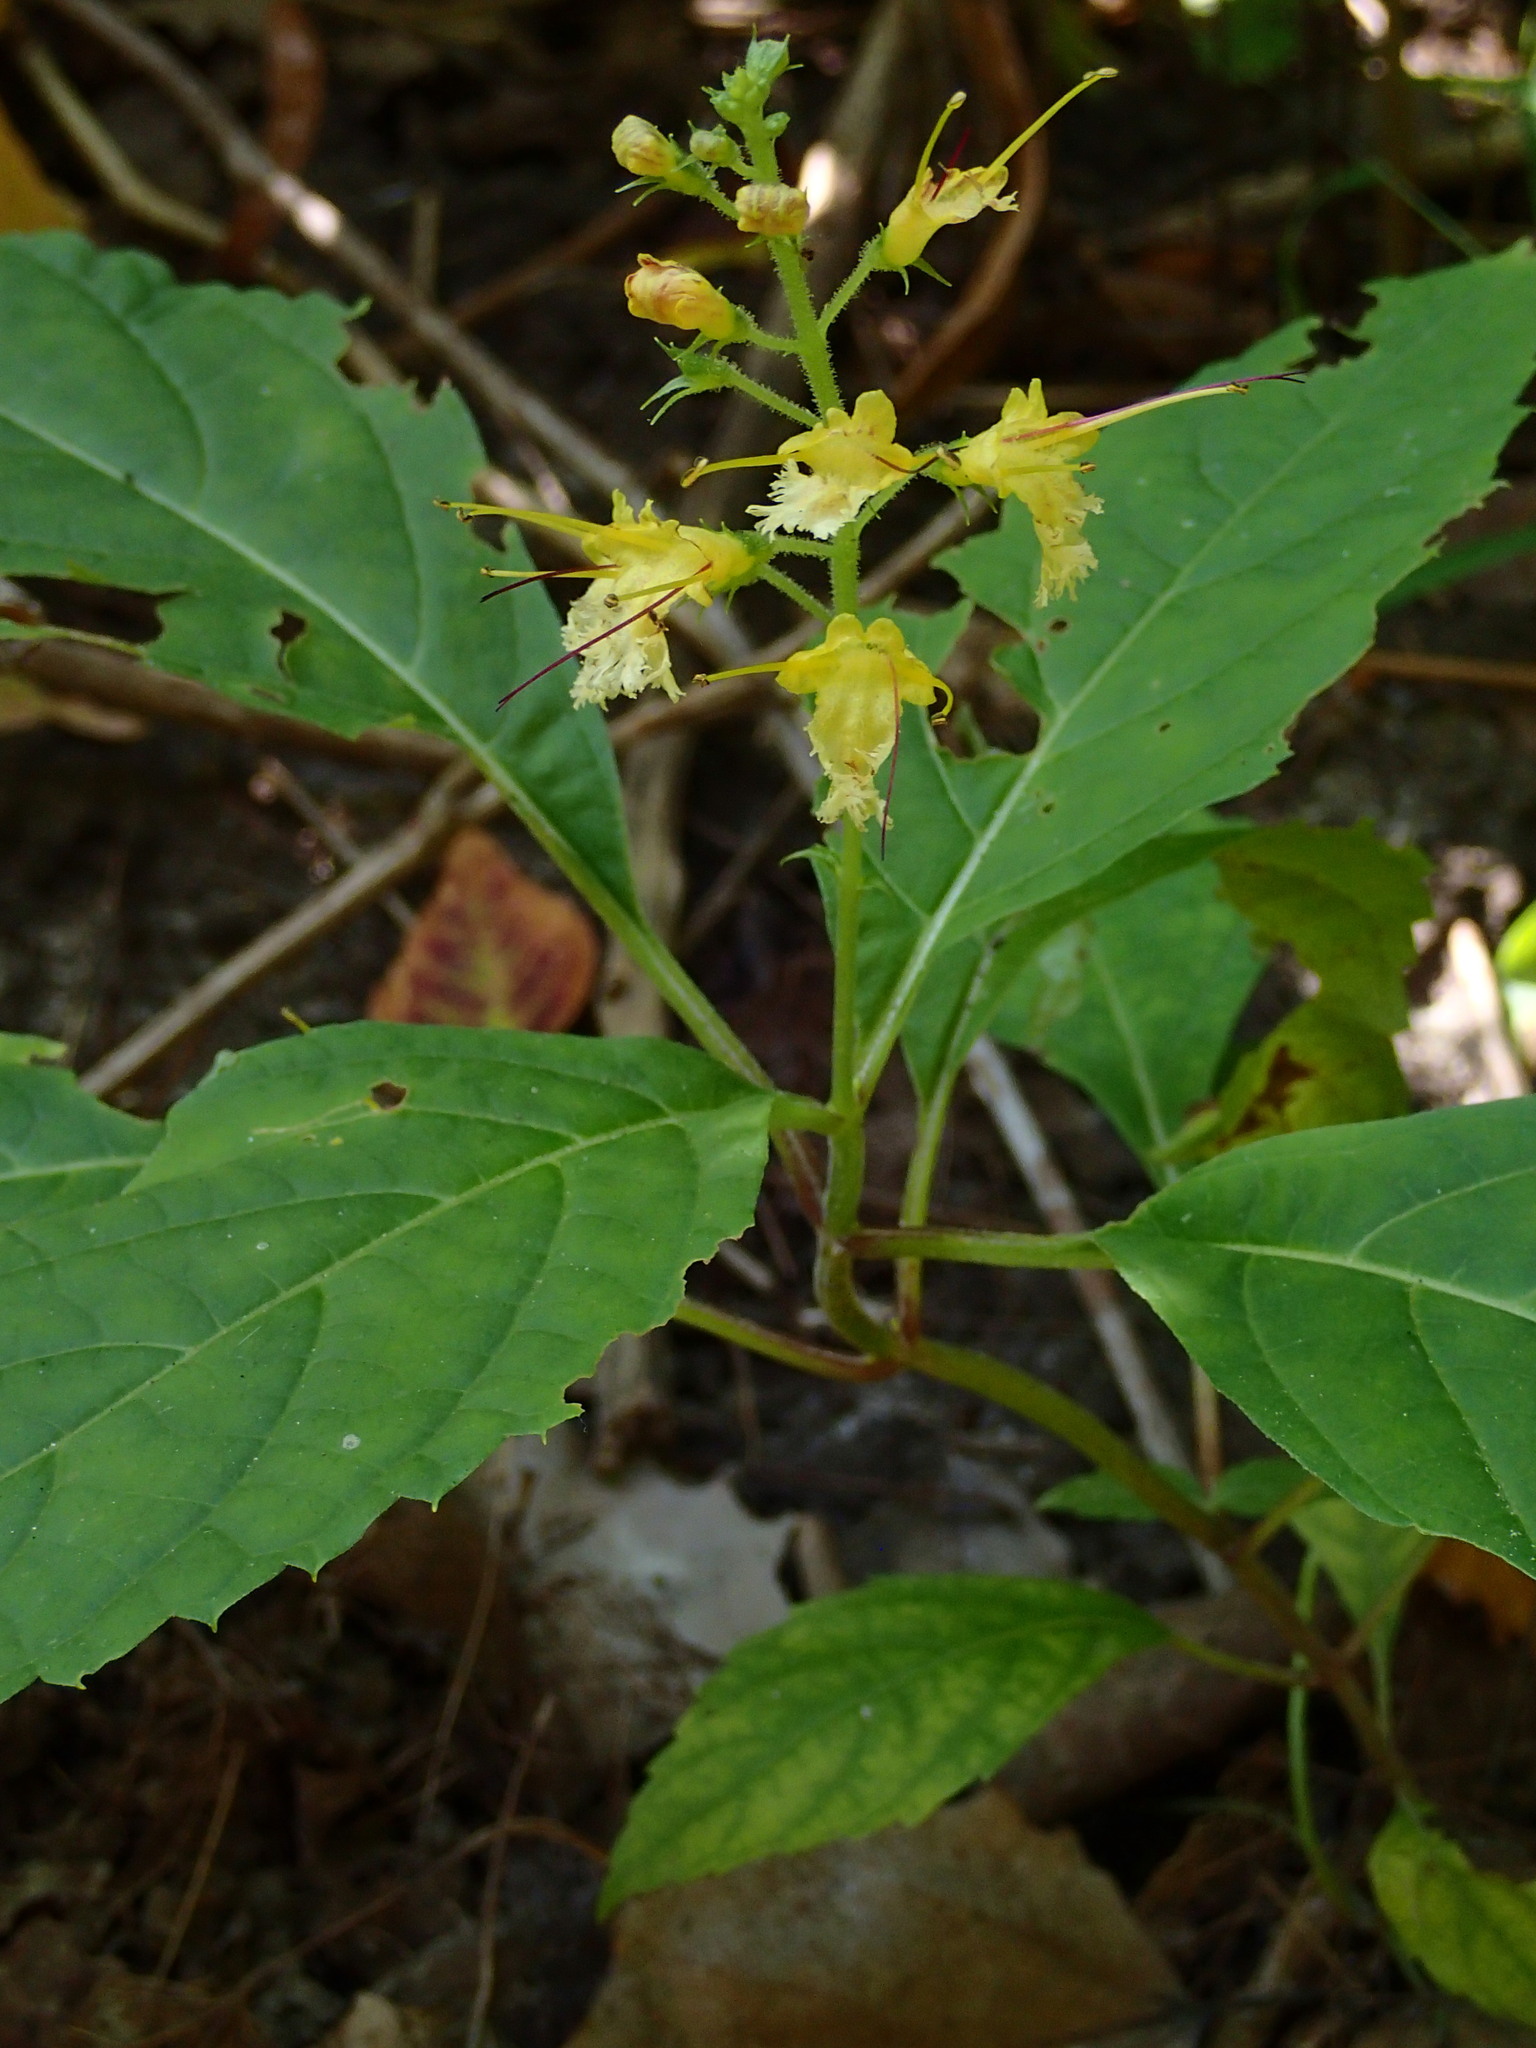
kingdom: Plantae
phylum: Tracheophyta
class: Magnoliopsida
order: Lamiales
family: Lamiaceae
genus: Collinsonia
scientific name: Collinsonia canadensis
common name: Northern horsebalm
